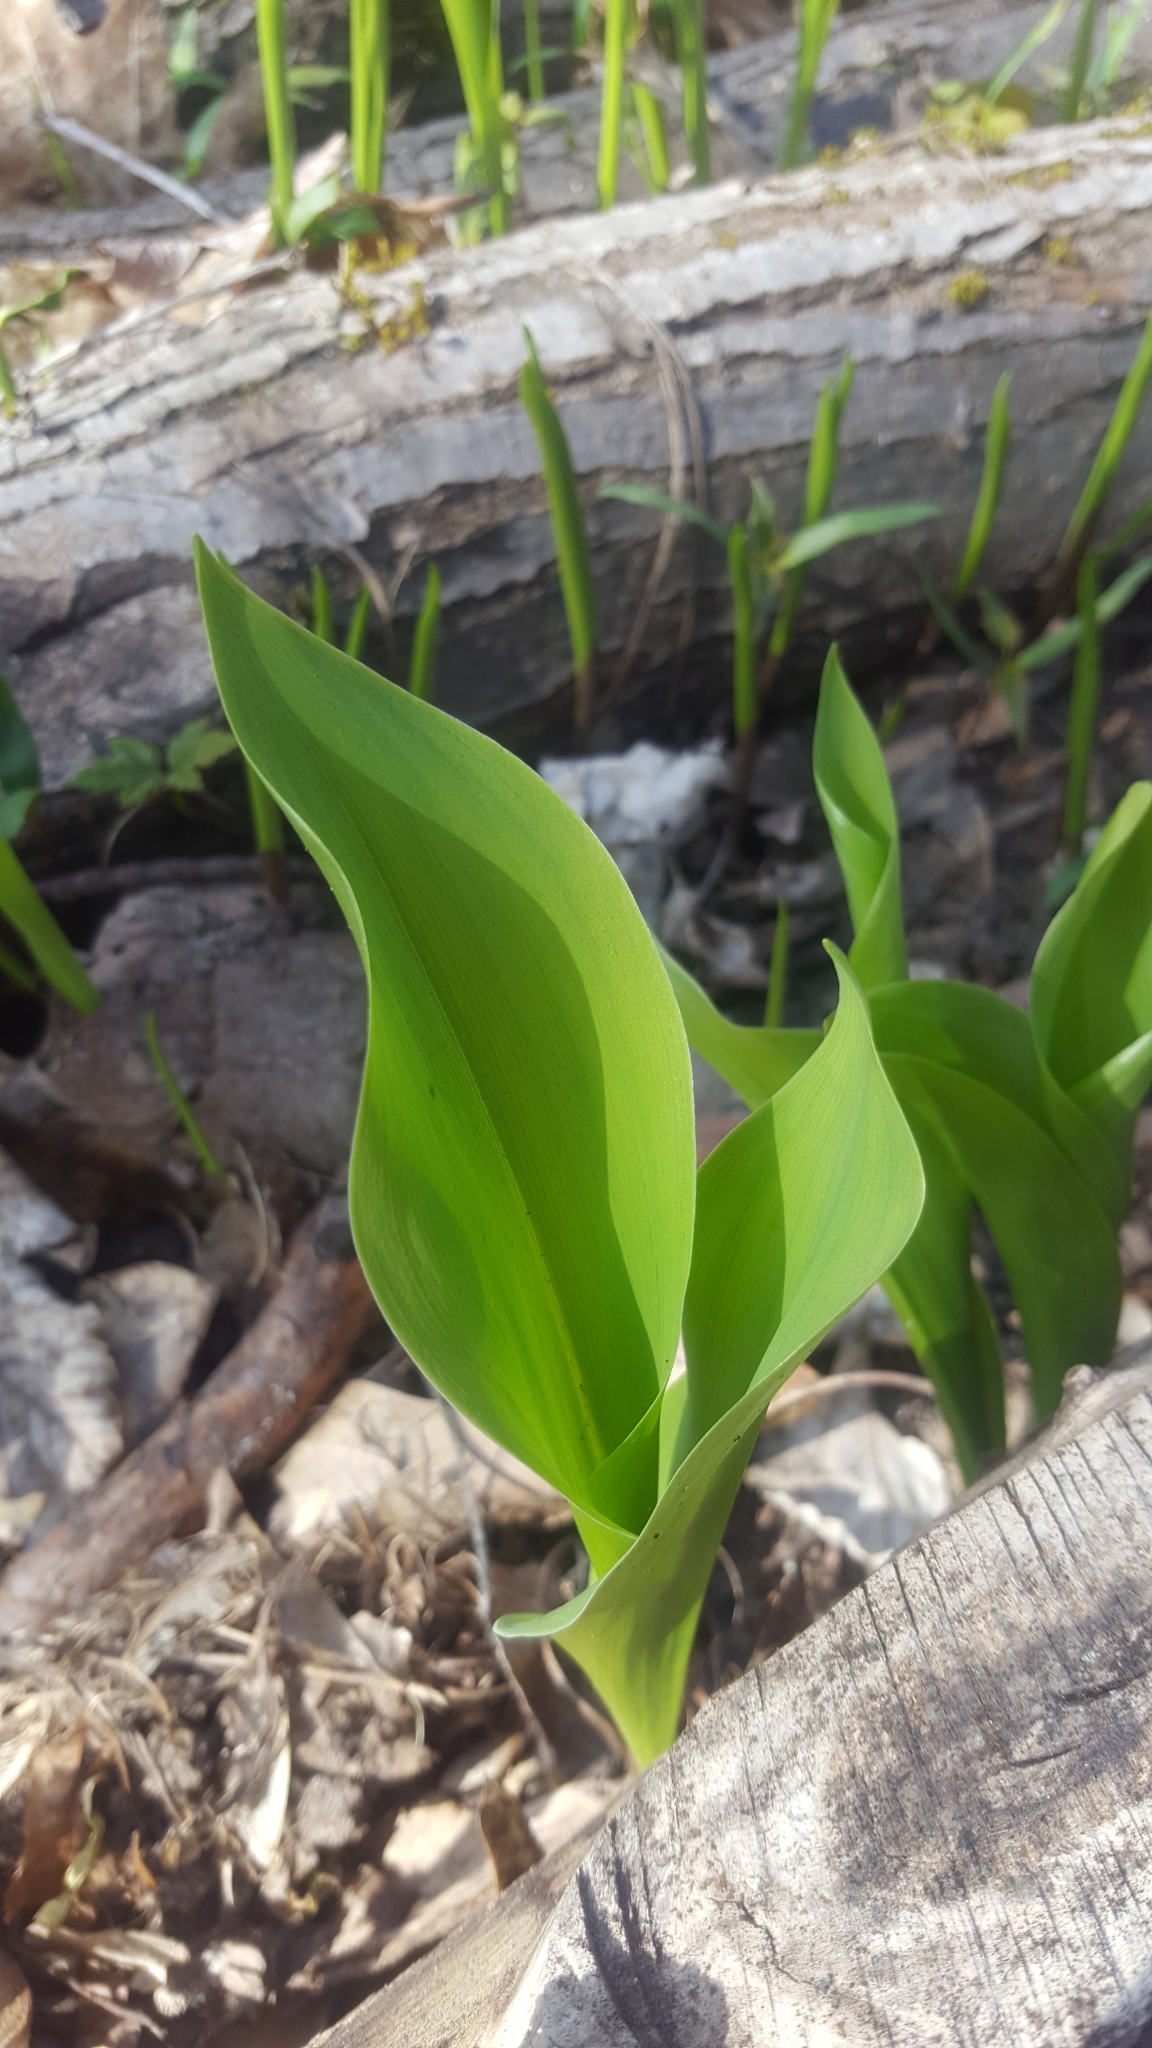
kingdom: Plantae
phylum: Tracheophyta
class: Liliopsida
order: Asparagales
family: Asparagaceae
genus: Convallaria
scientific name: Convallaria majalis
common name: Lily-of-the-valley
